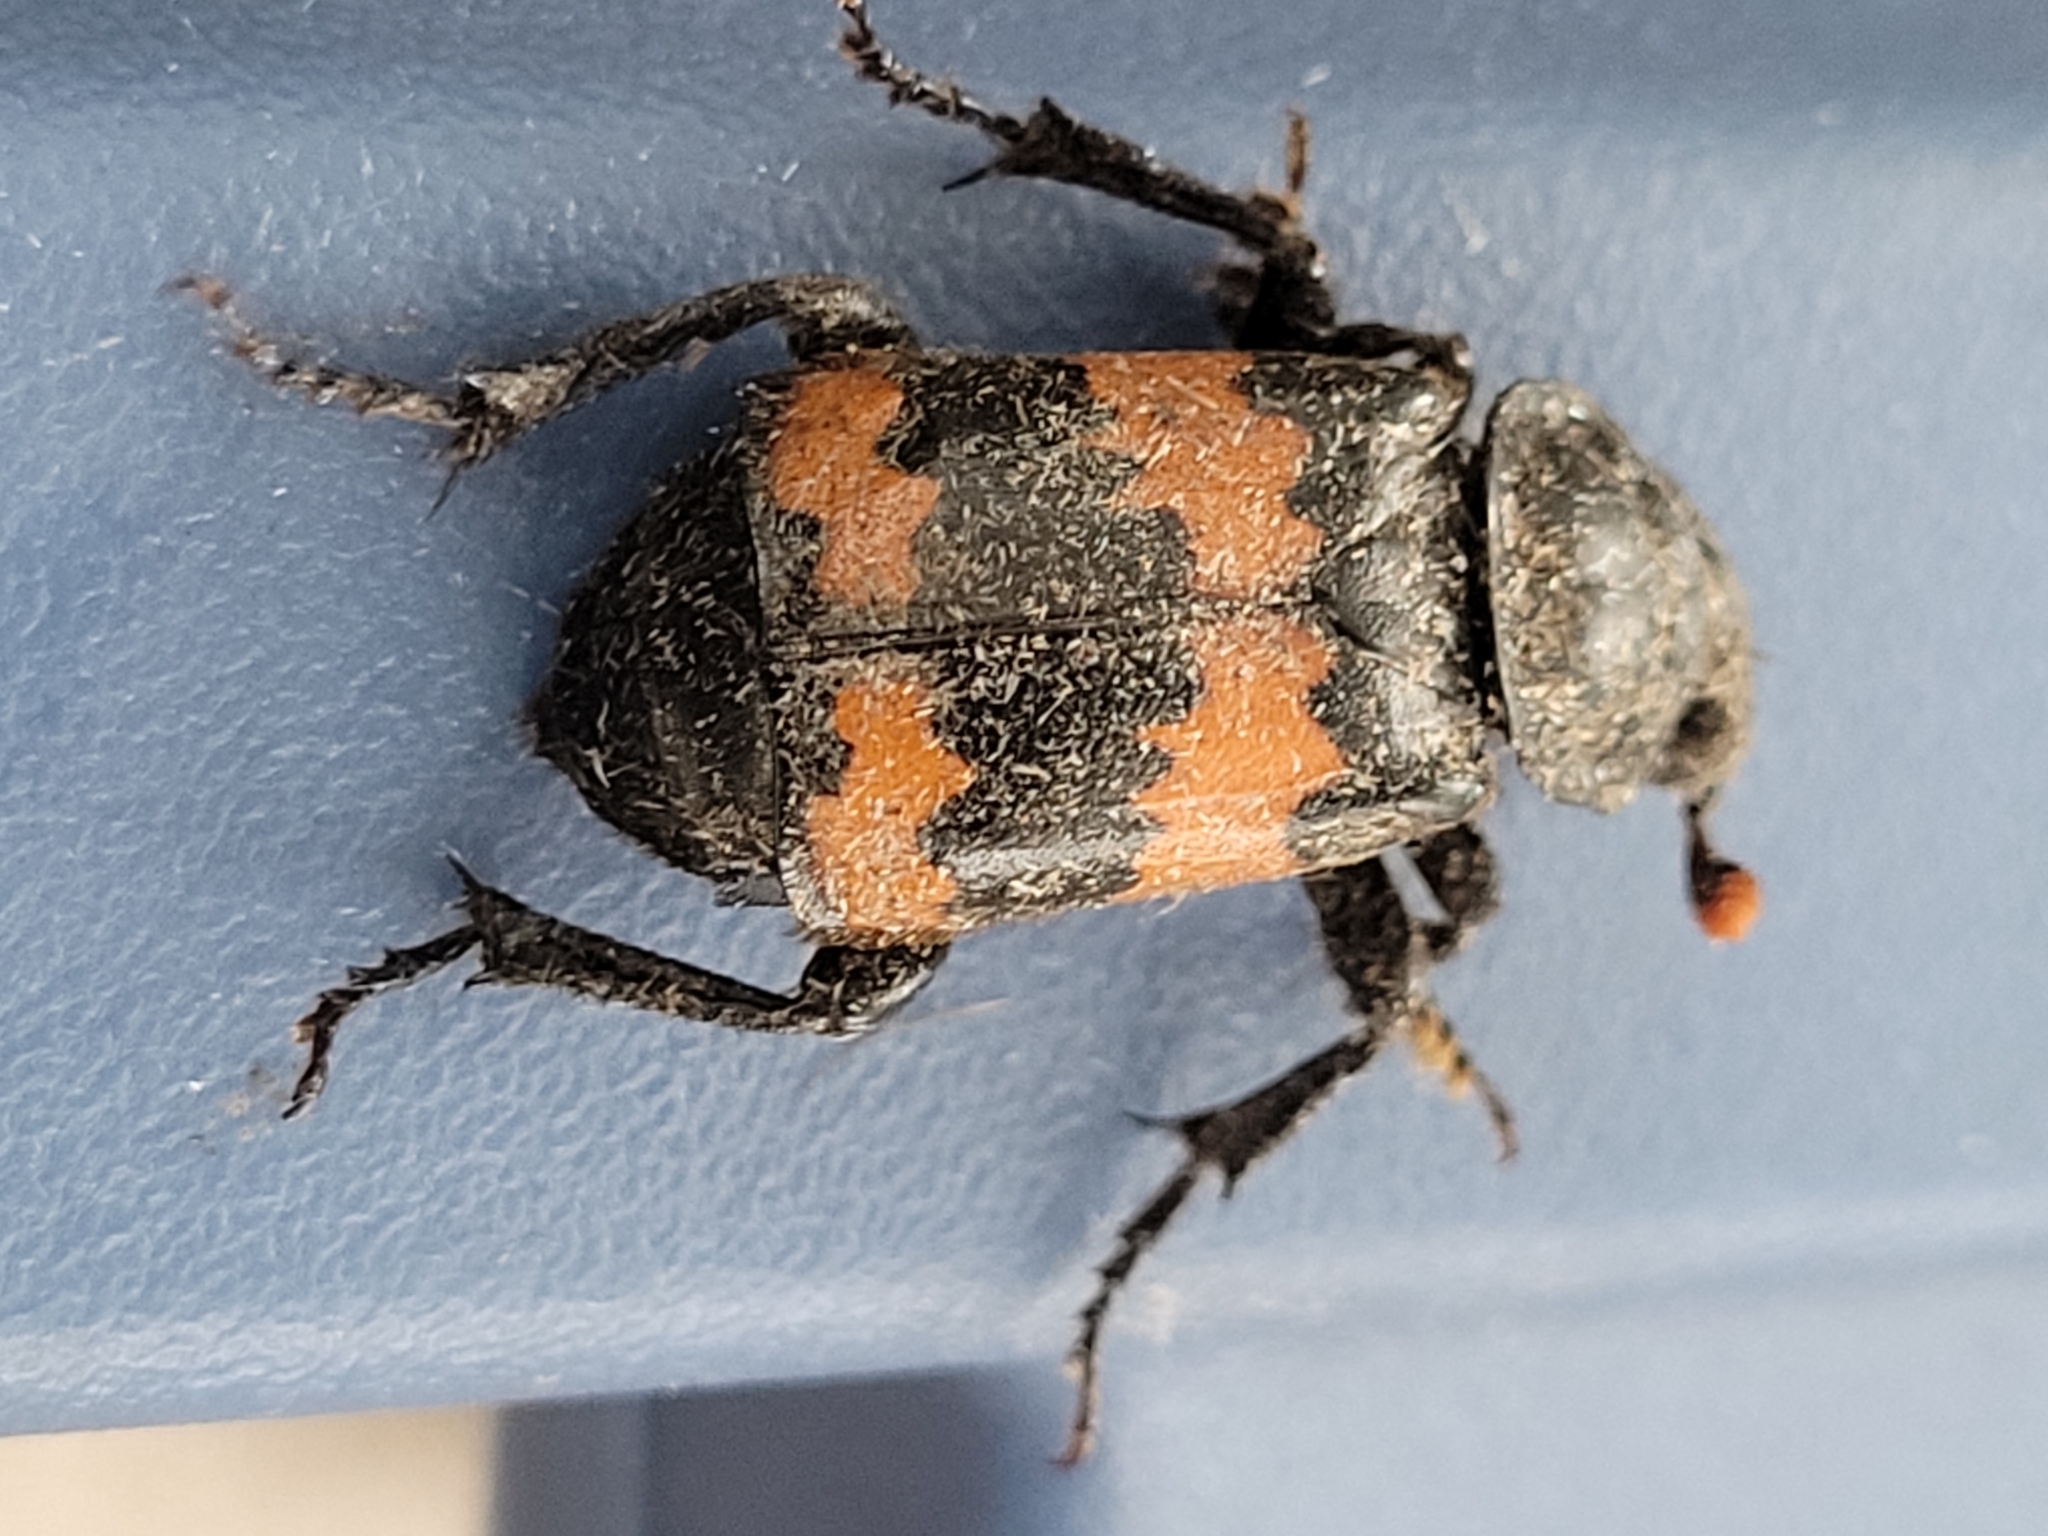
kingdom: Animalia
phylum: Arthropoda
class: Insecta
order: Coleoptera
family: Staphylinidae
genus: Nicrophorus
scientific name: Nicrophorus hybridus
